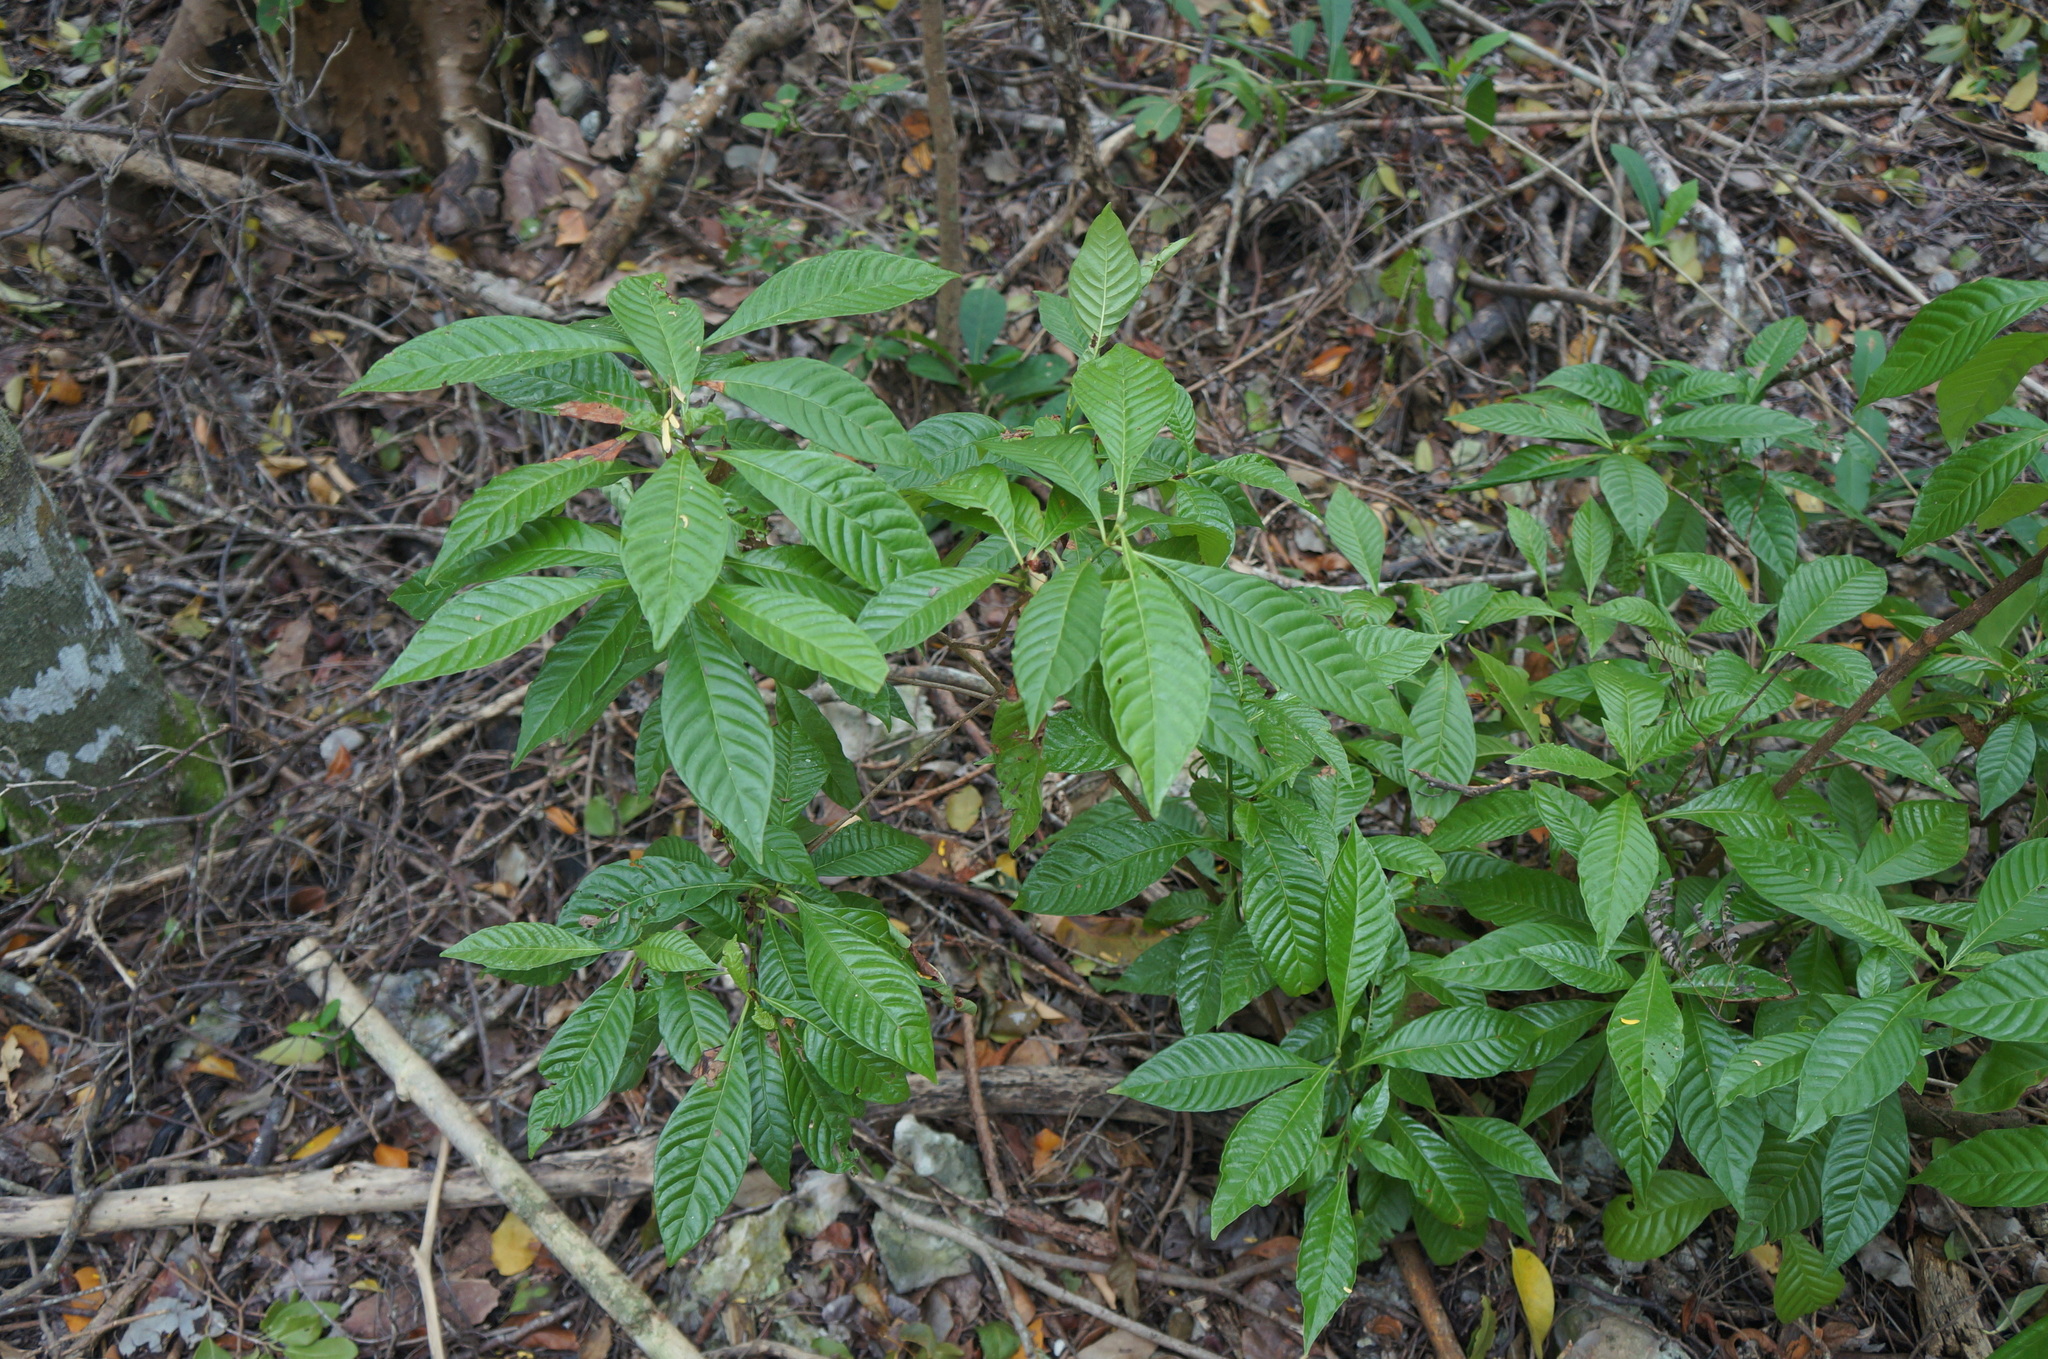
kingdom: Plantae
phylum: Tracheophyta
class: Magnoliopsida
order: Gentianales
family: Rubiaceae
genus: Psychotria
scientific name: Psychotria nervosa
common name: Bastard cankerberry
